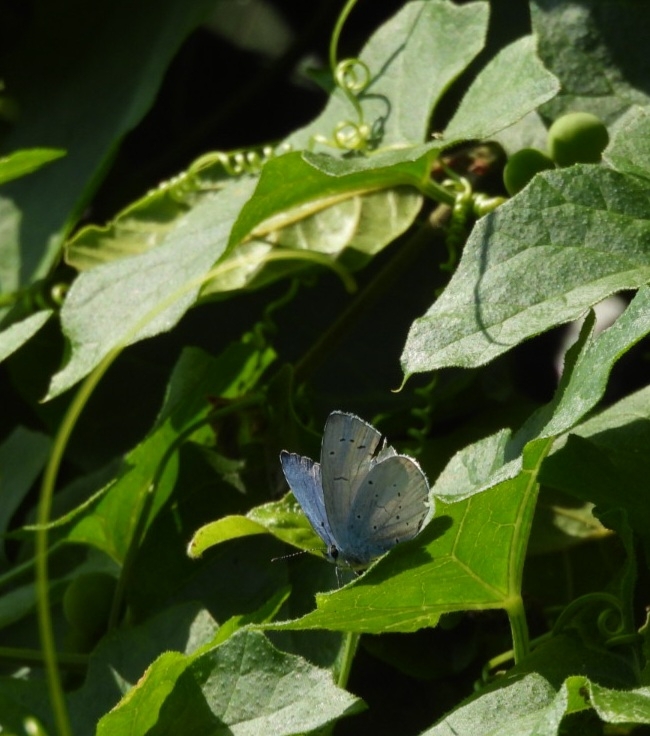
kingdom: Animalia
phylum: Arthropoda
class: Insecta
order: Lepidoptera
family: Lycaenidae
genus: Celastrina
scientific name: Celastrina argiolus
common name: Holly blue
